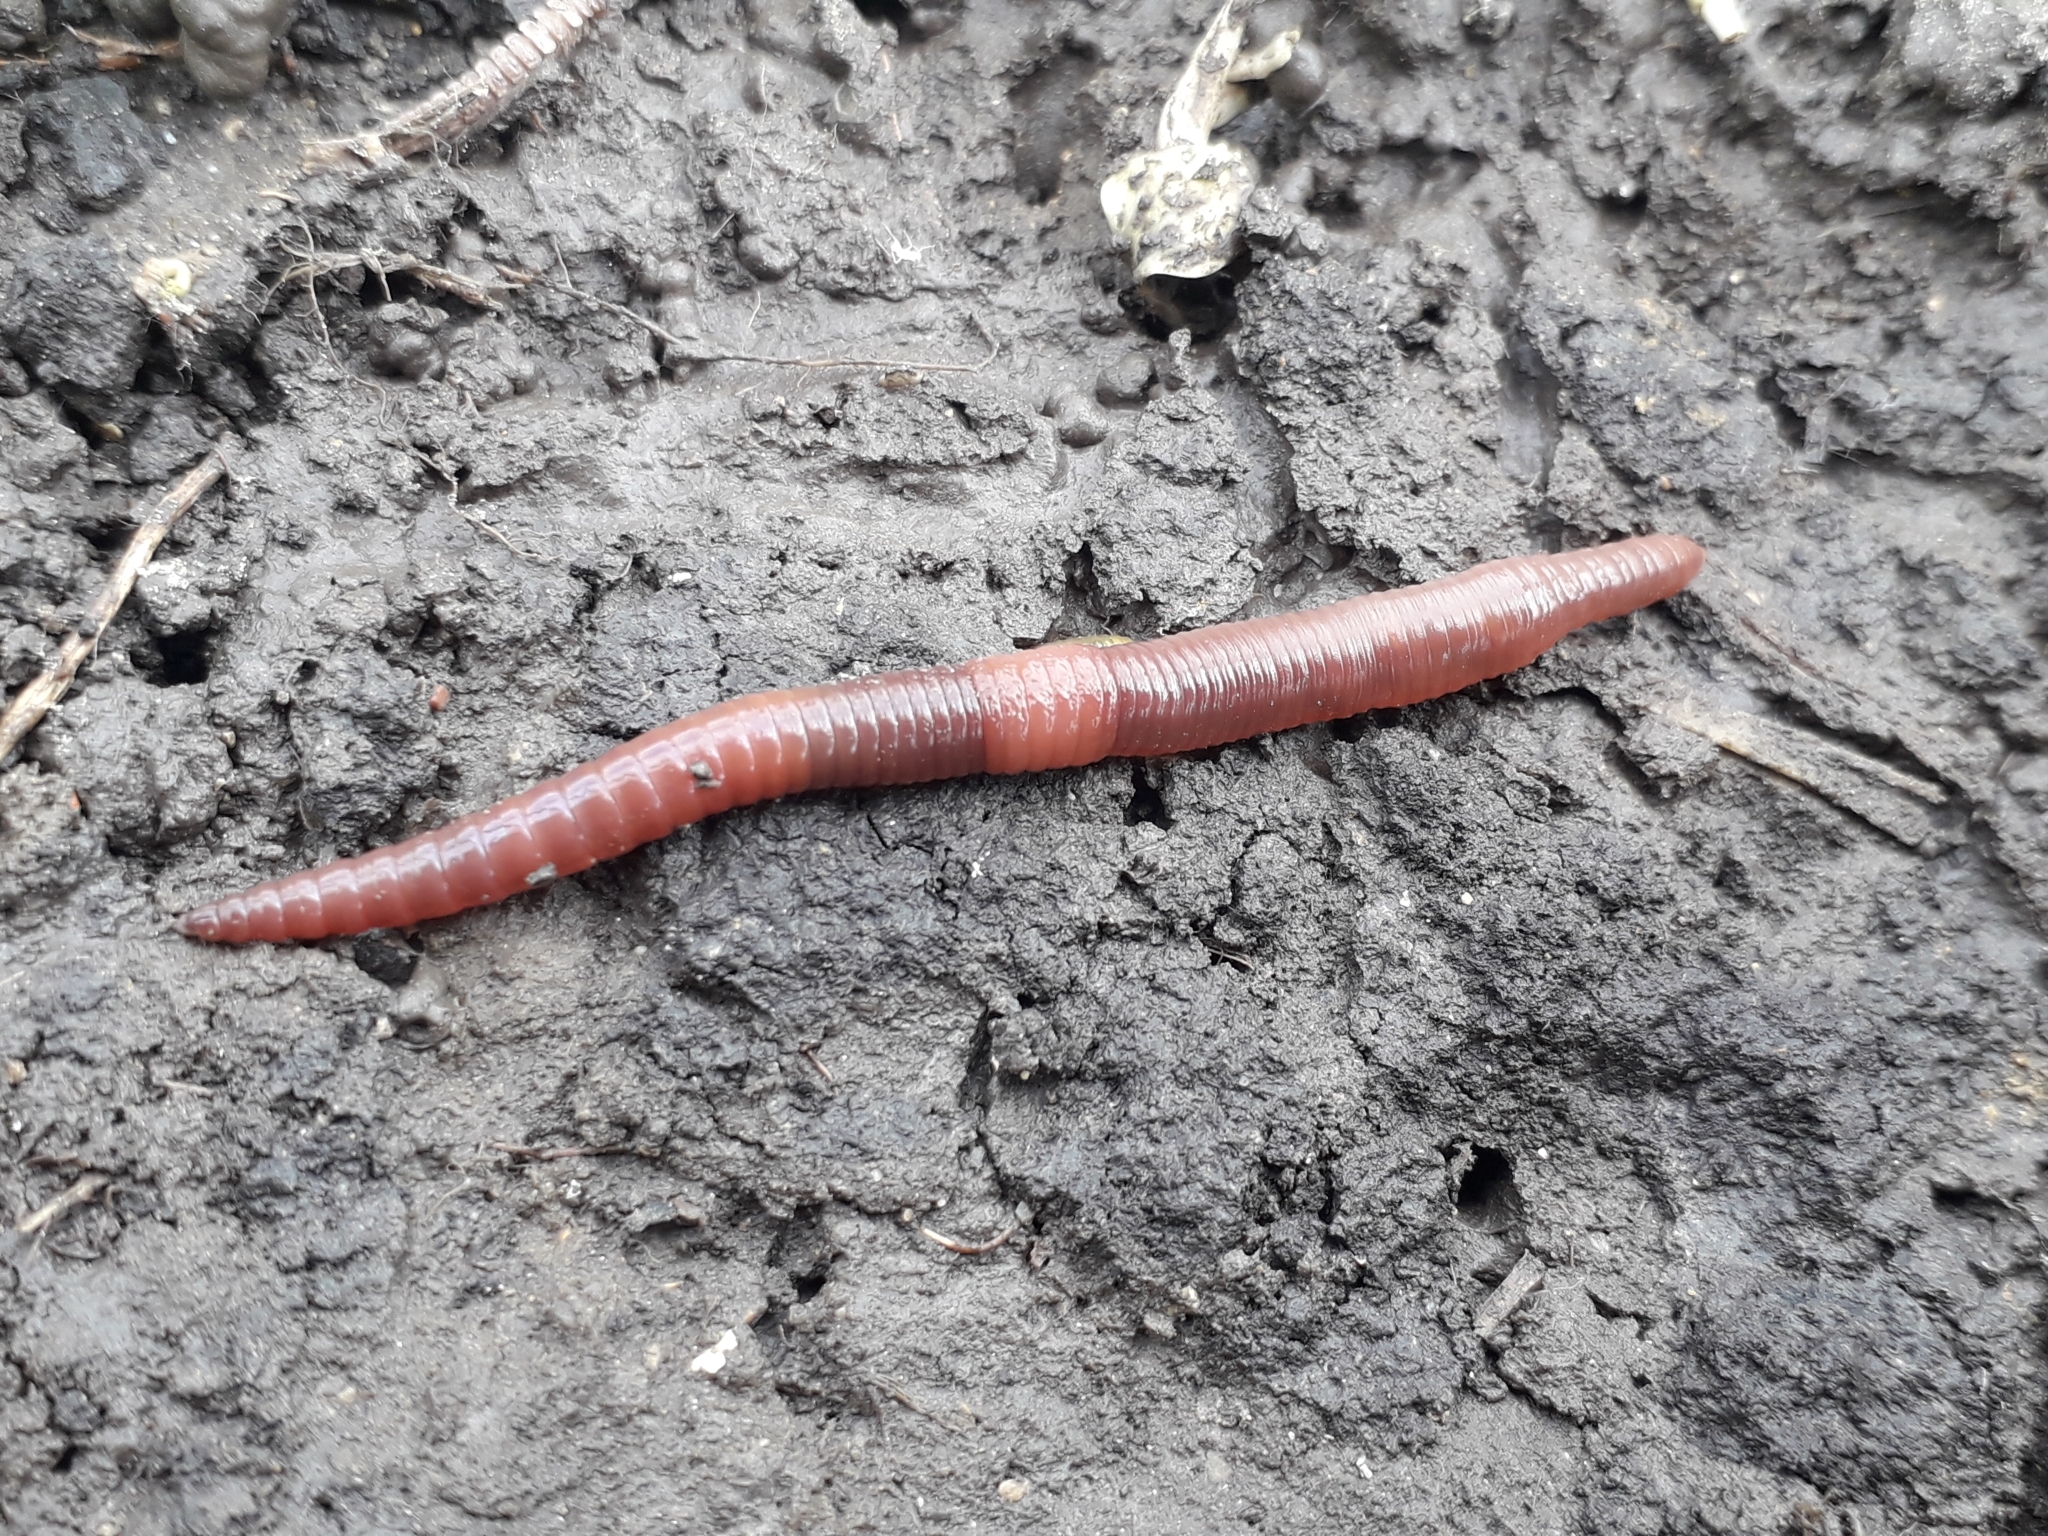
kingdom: Animalia
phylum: Annelida
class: Clitellata
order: Crassiclitellata
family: Lumbricidae
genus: Lumbricus
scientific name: Lumbricus terrestris
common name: Common earthworm
